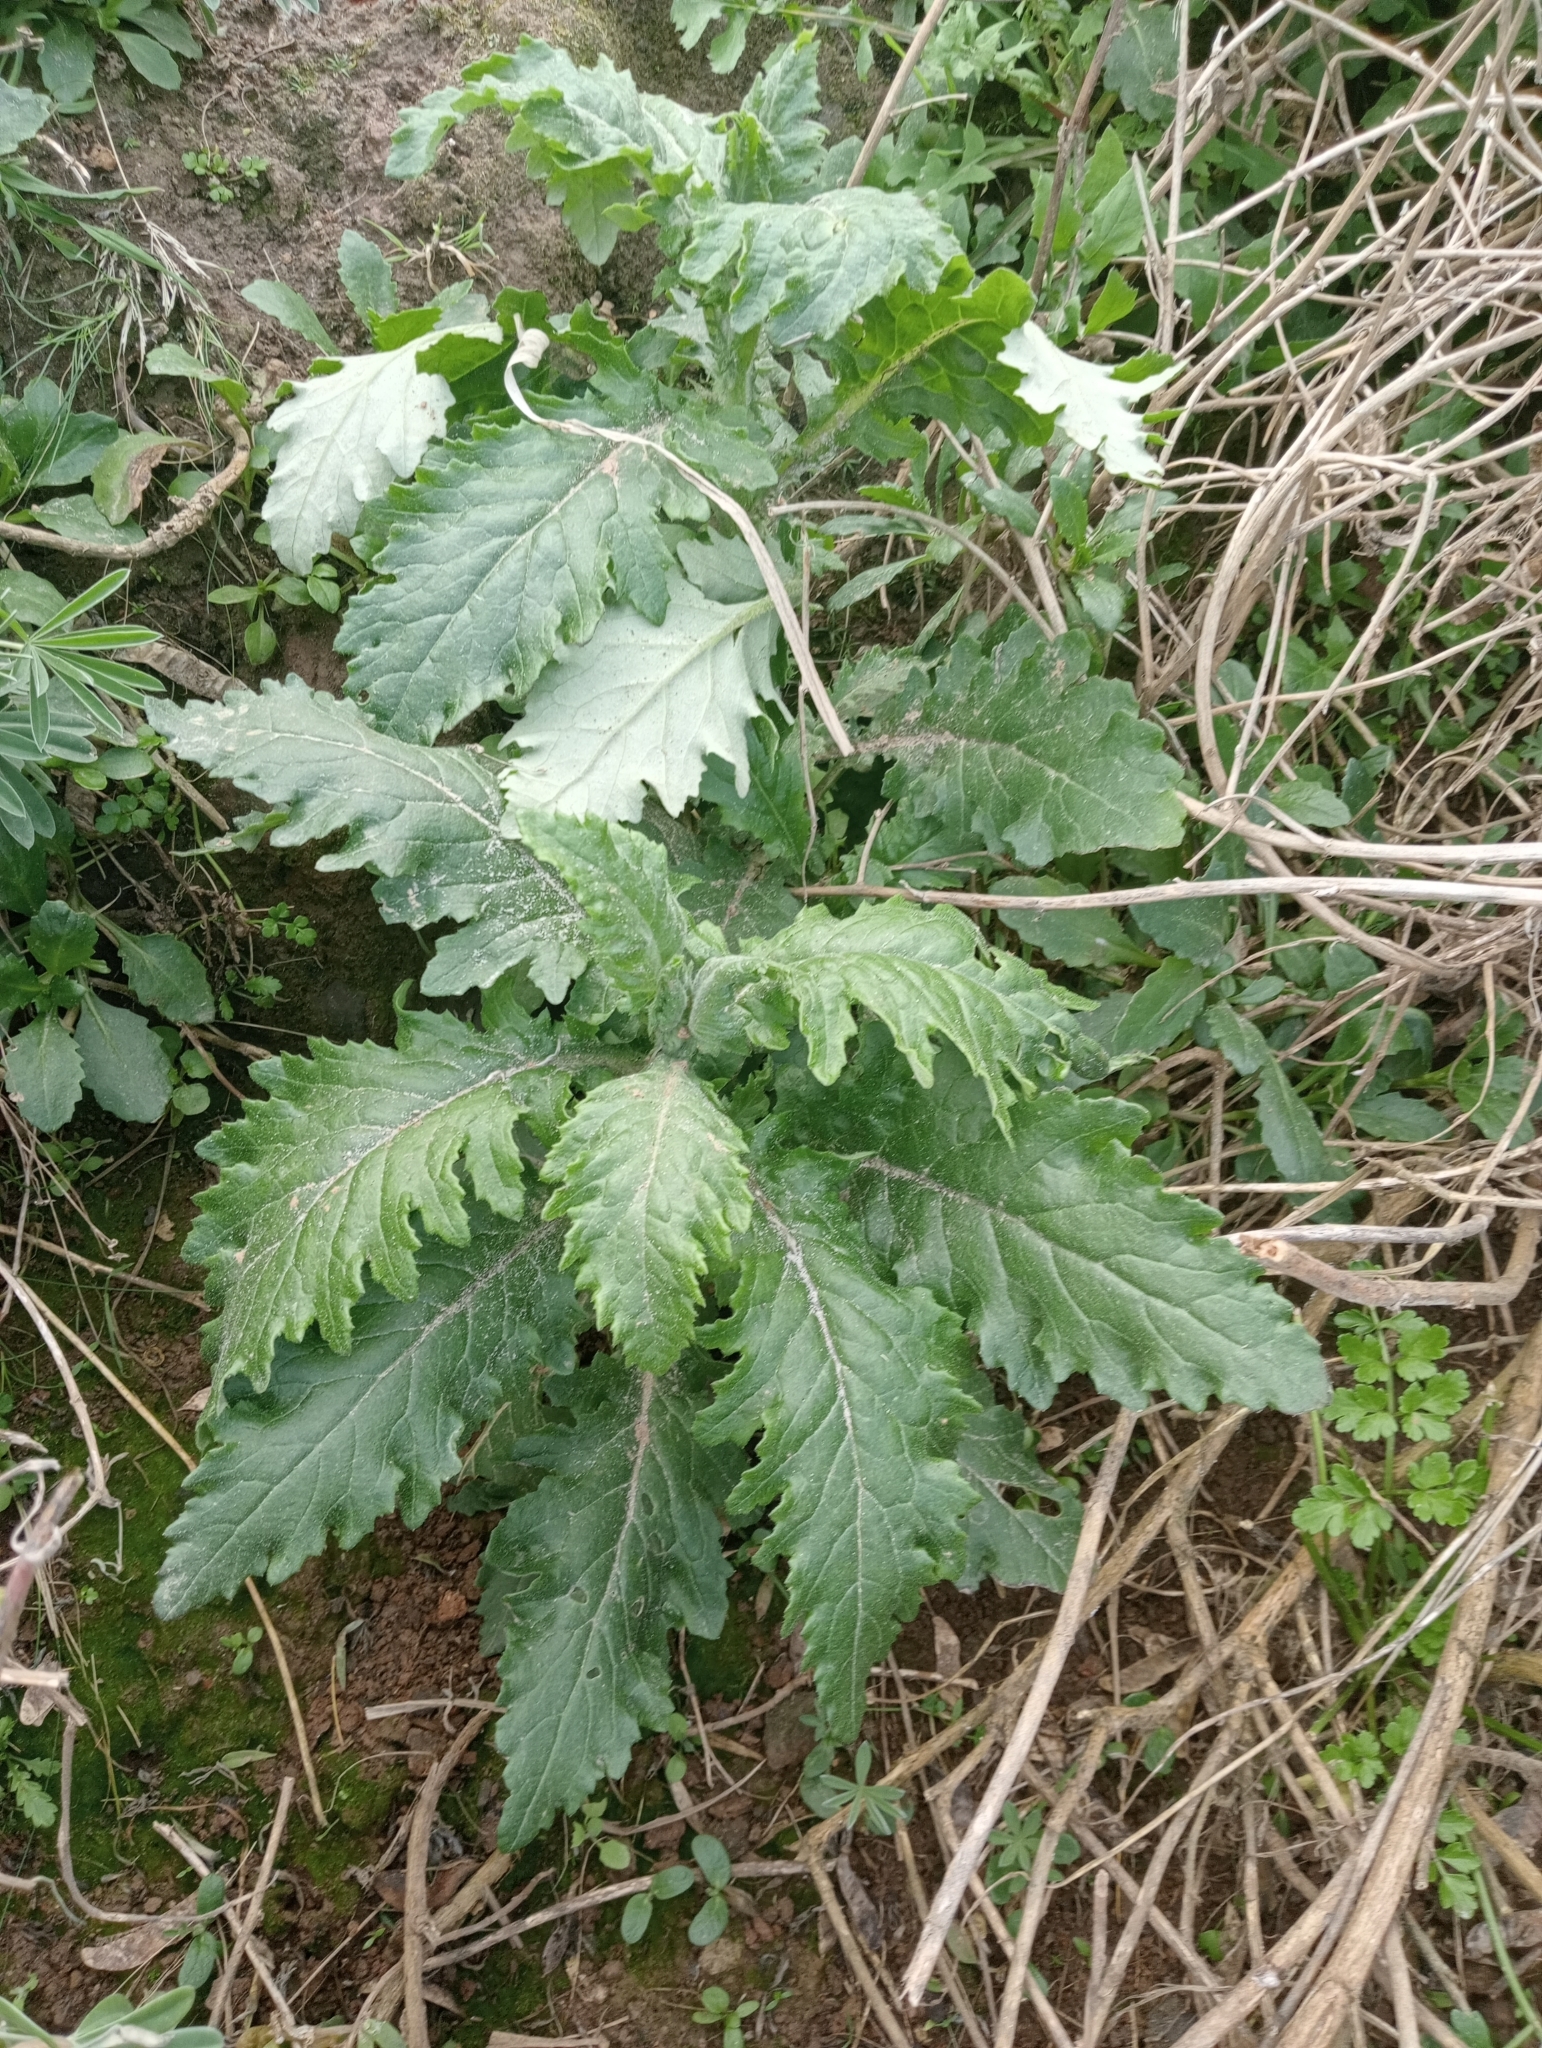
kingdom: Plantae
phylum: Tracheophyta
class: Magnoliopsida
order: Asterales
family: Asteraceae
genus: Senecio
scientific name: Senecio biserratus
